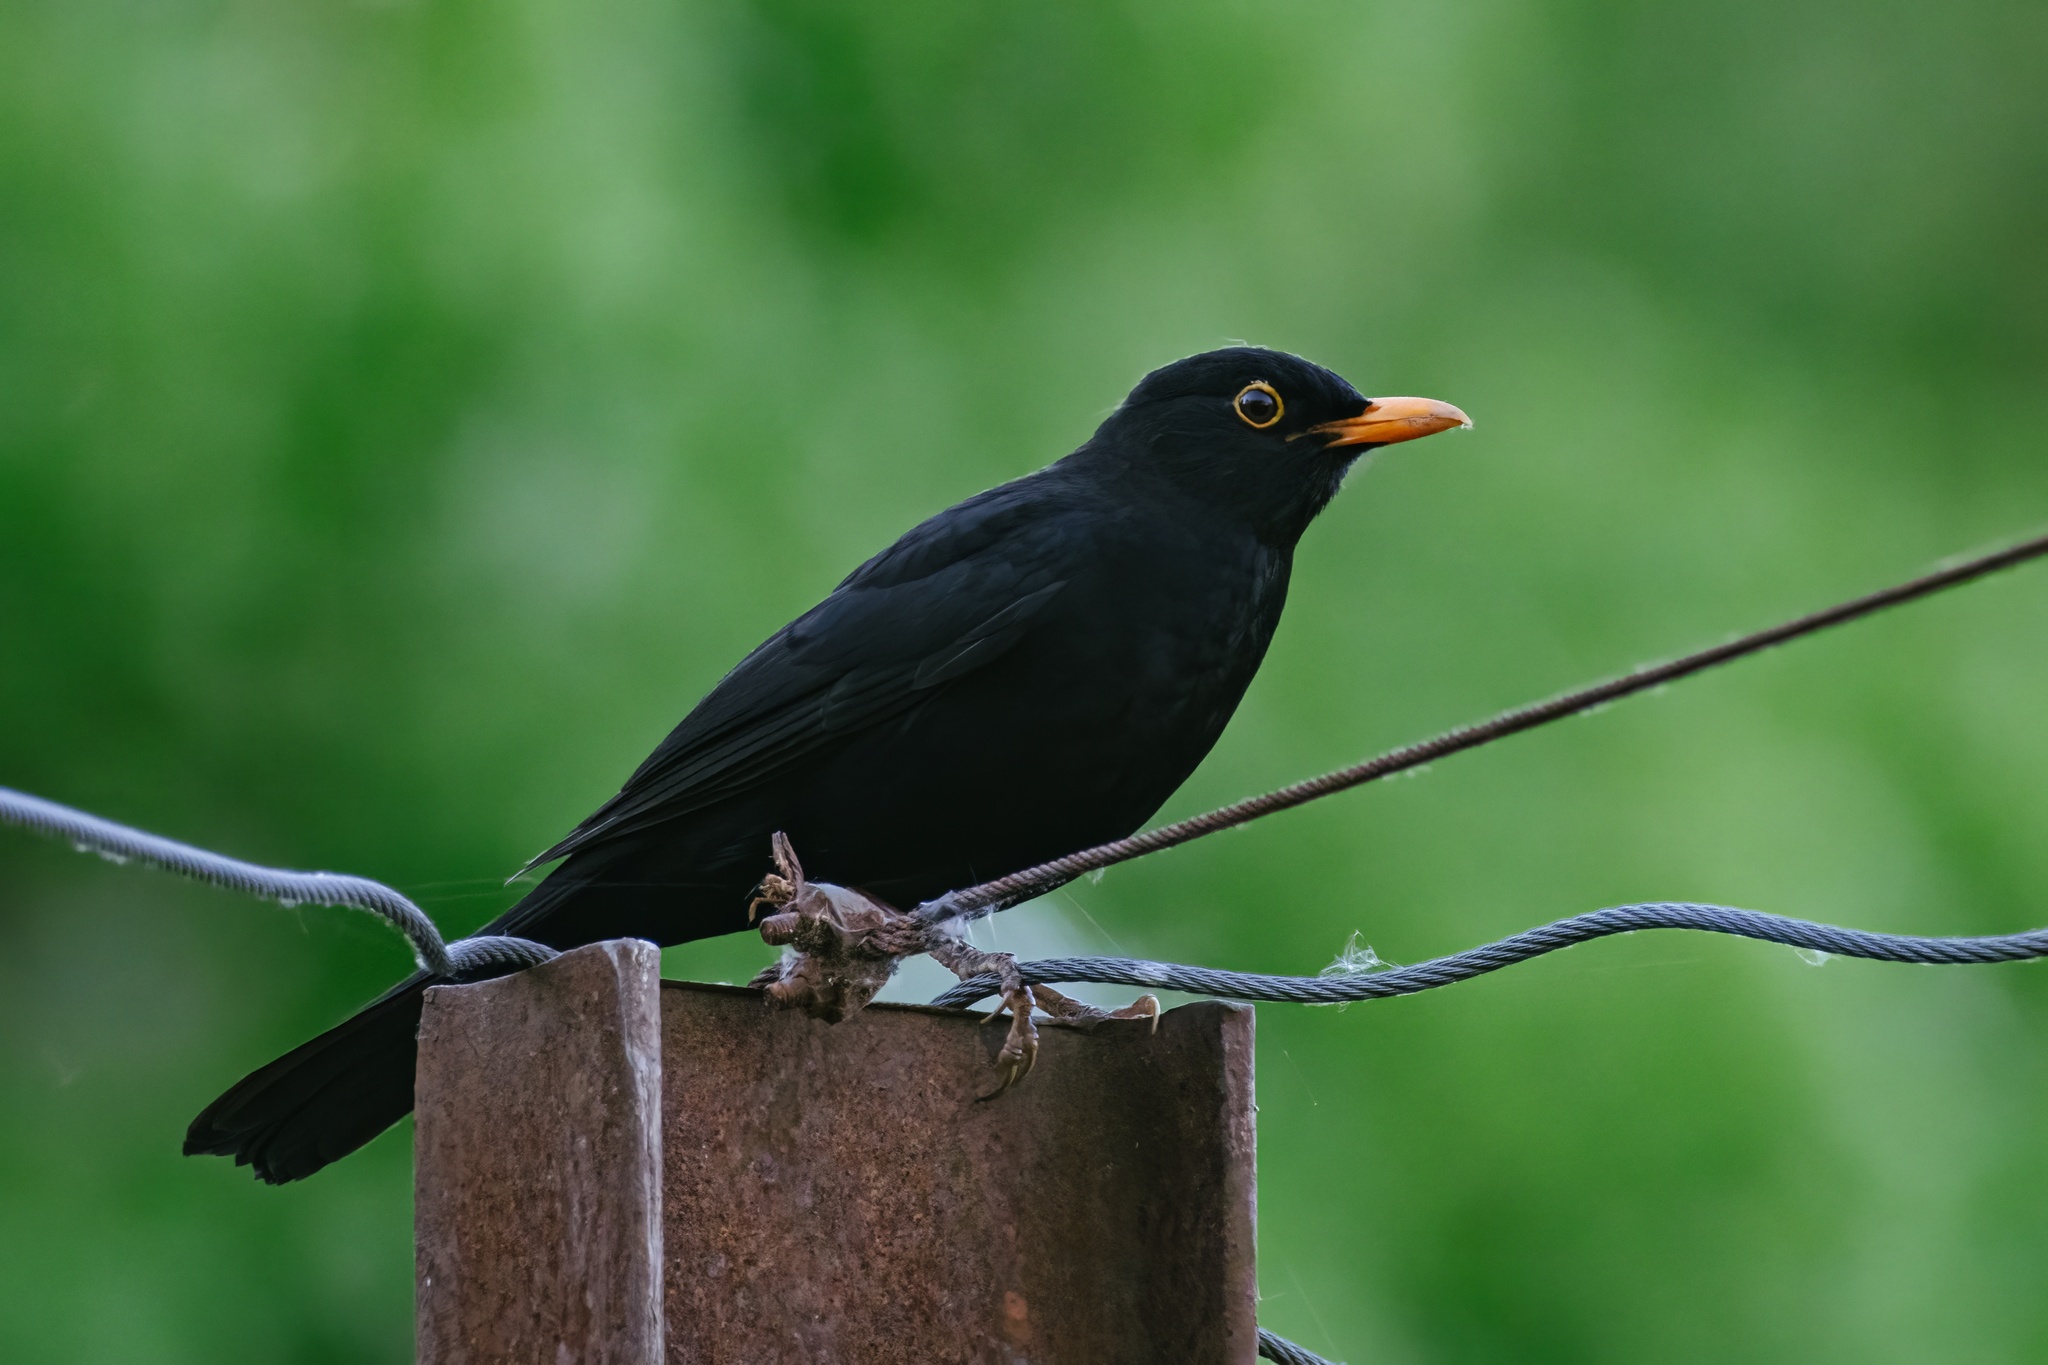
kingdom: Animalia
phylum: Chordata
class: Aves
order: Passeriformes
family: Turdidae
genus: Turdus
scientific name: Turdus merula
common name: Common blackbird
